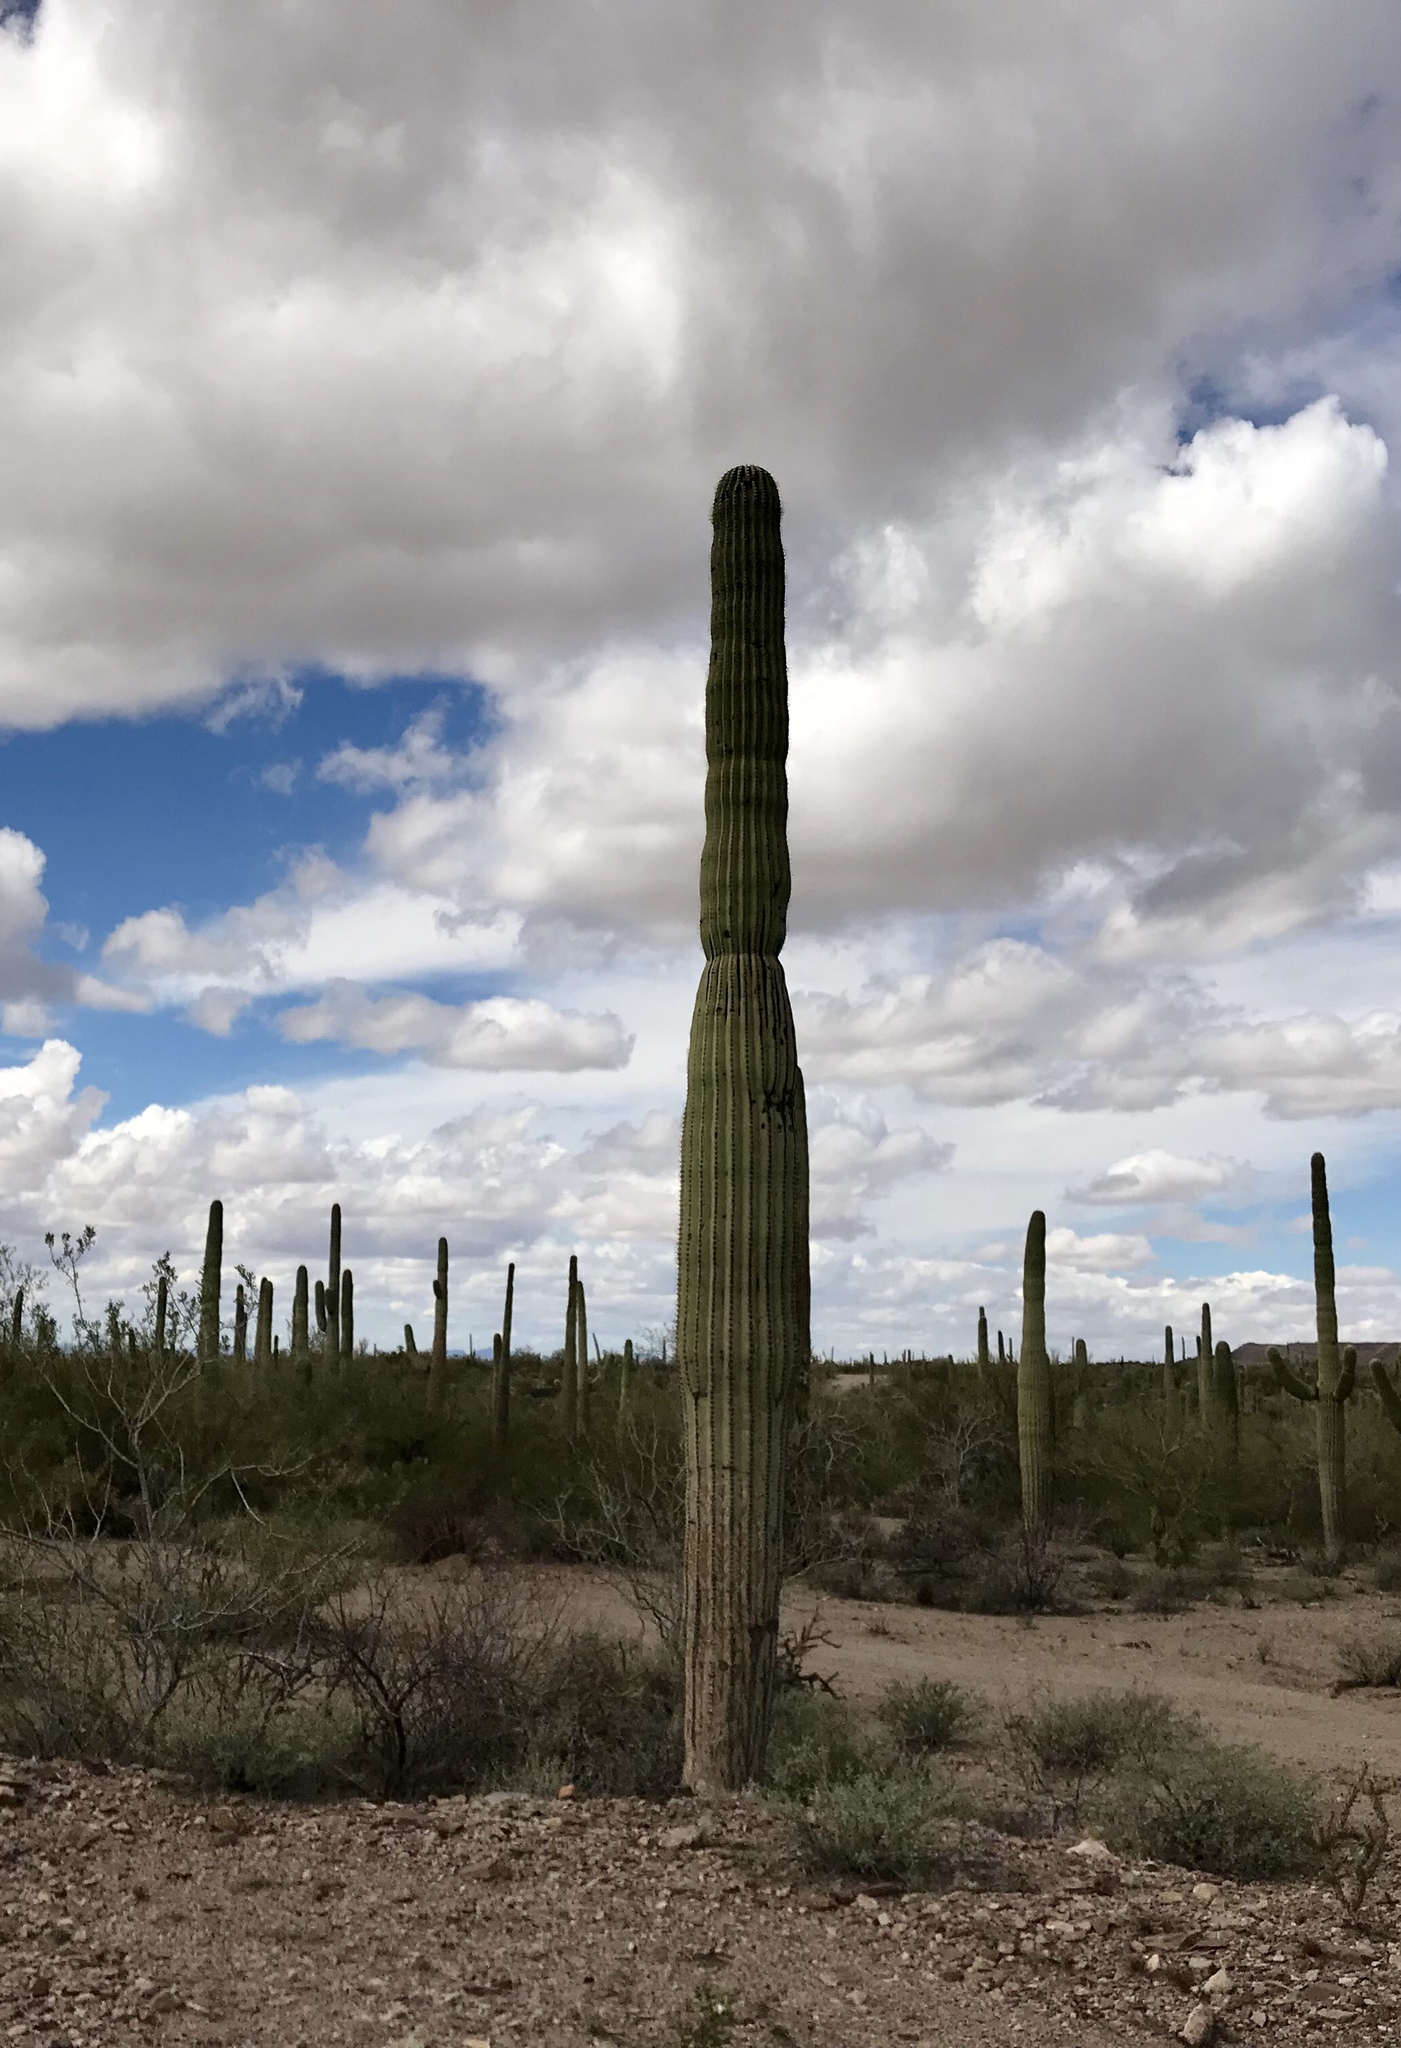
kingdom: Plantae
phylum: Tracheophyta
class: Magnoliopsida
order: Caryophyllales
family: Cactaceae
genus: Carnegiea
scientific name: Carnegiea gigantea
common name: Saguaro
